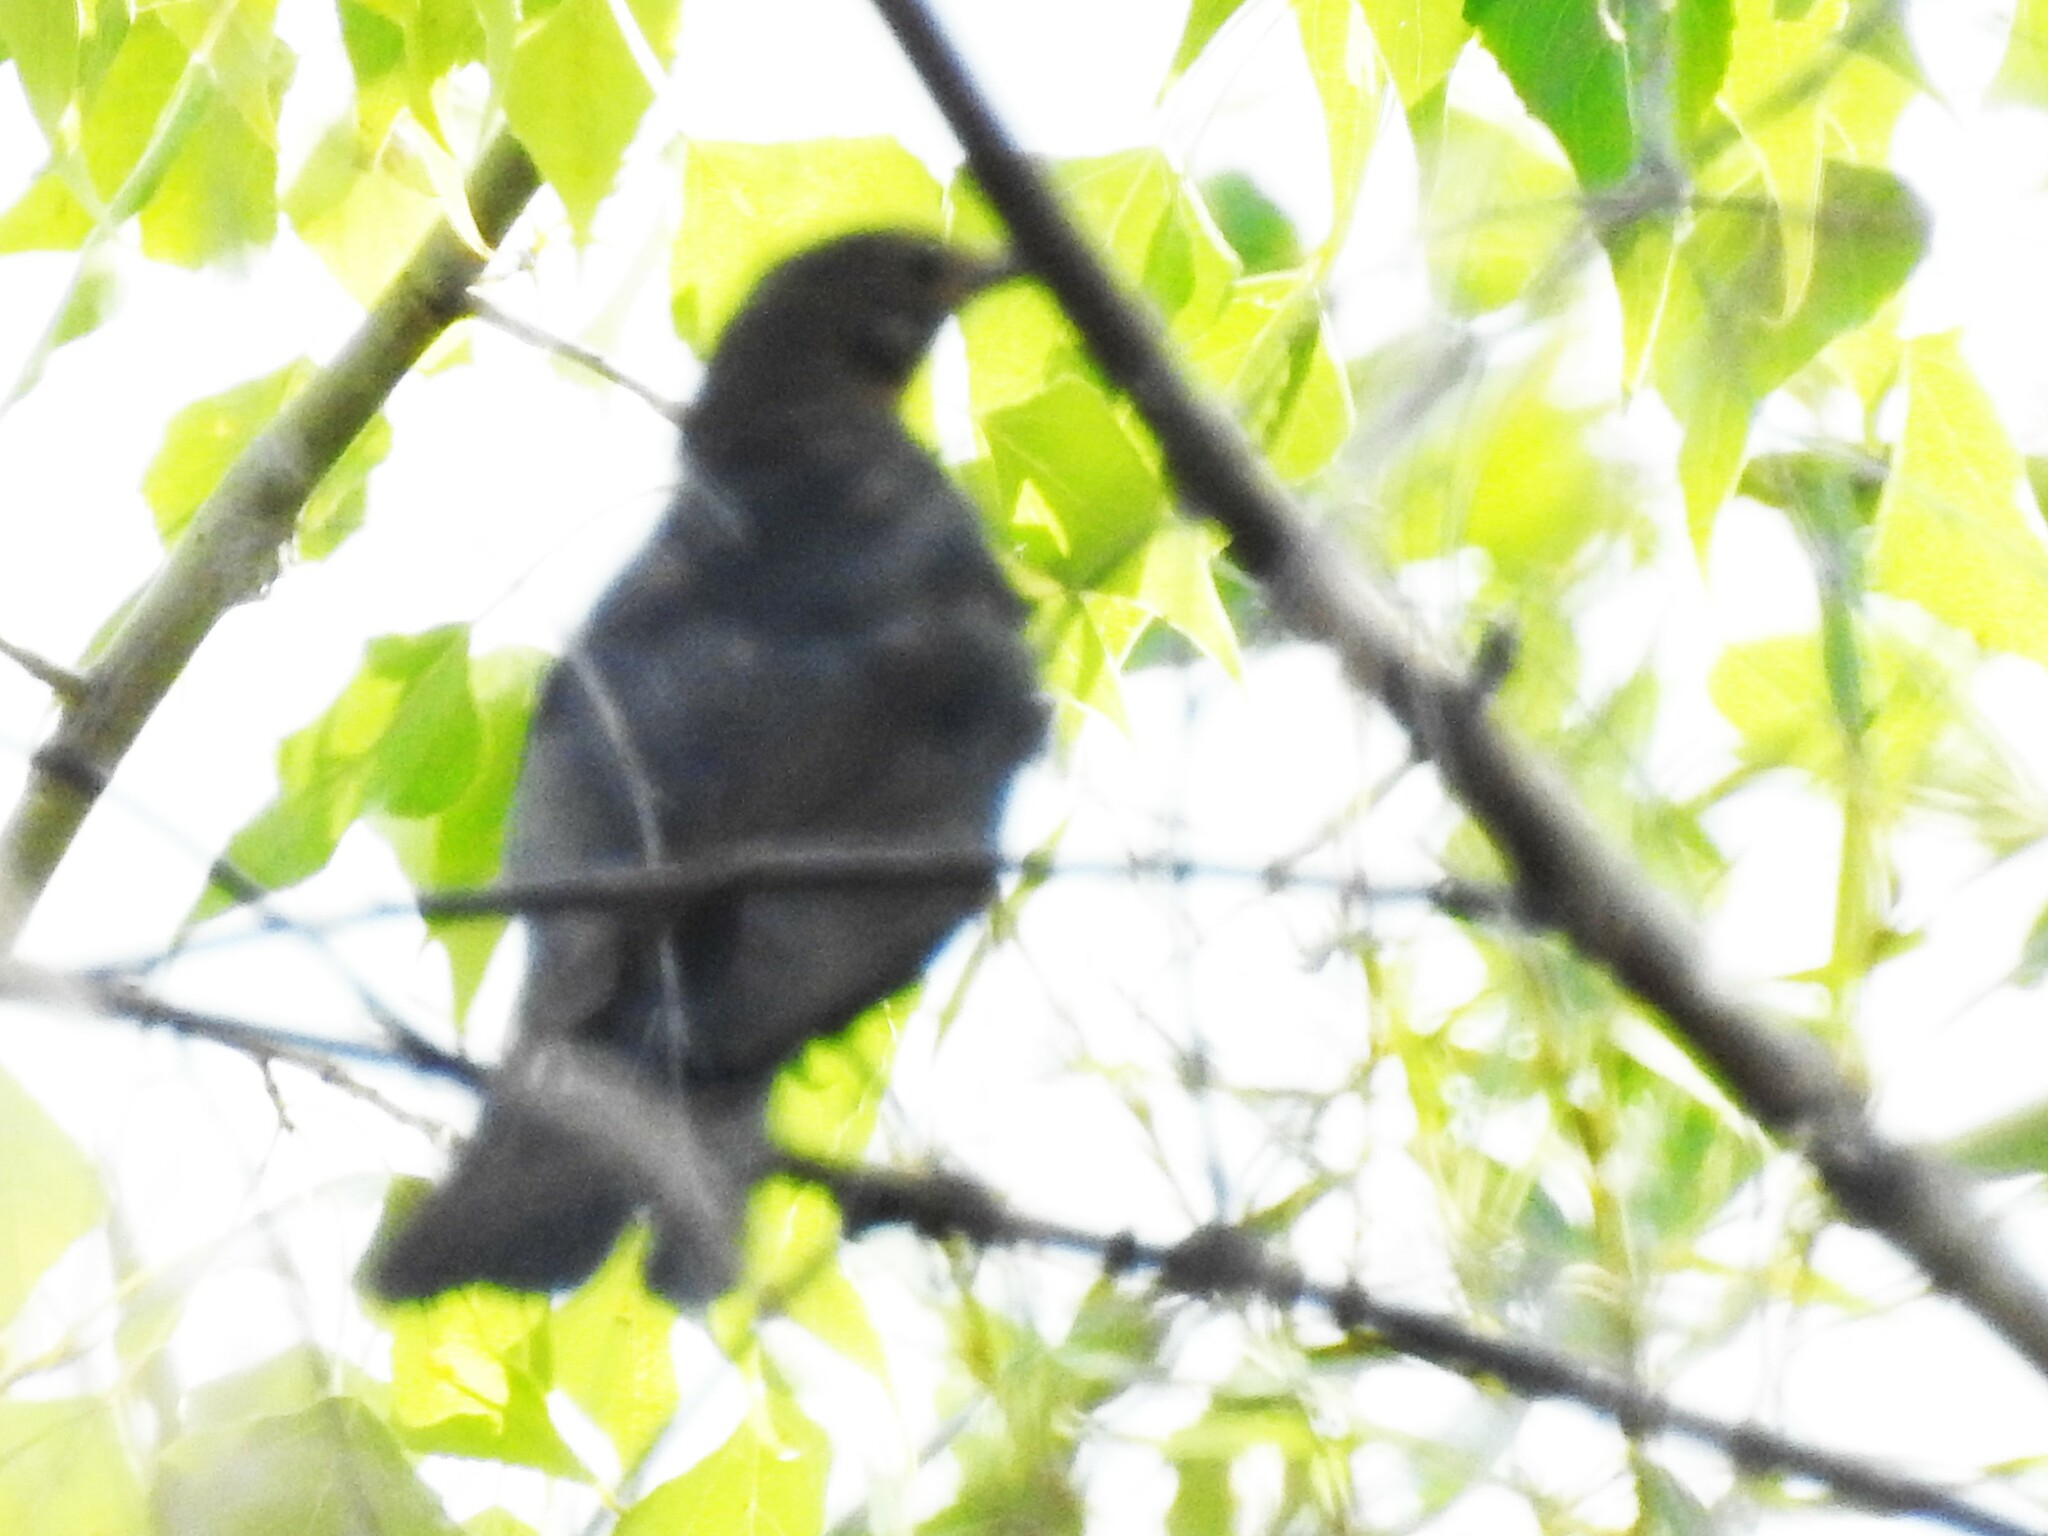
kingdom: Animalia
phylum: Chordata
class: Aves
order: Passeriformes
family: Turdidae
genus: Turdus
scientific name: Turdus merula
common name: Common blackbird
